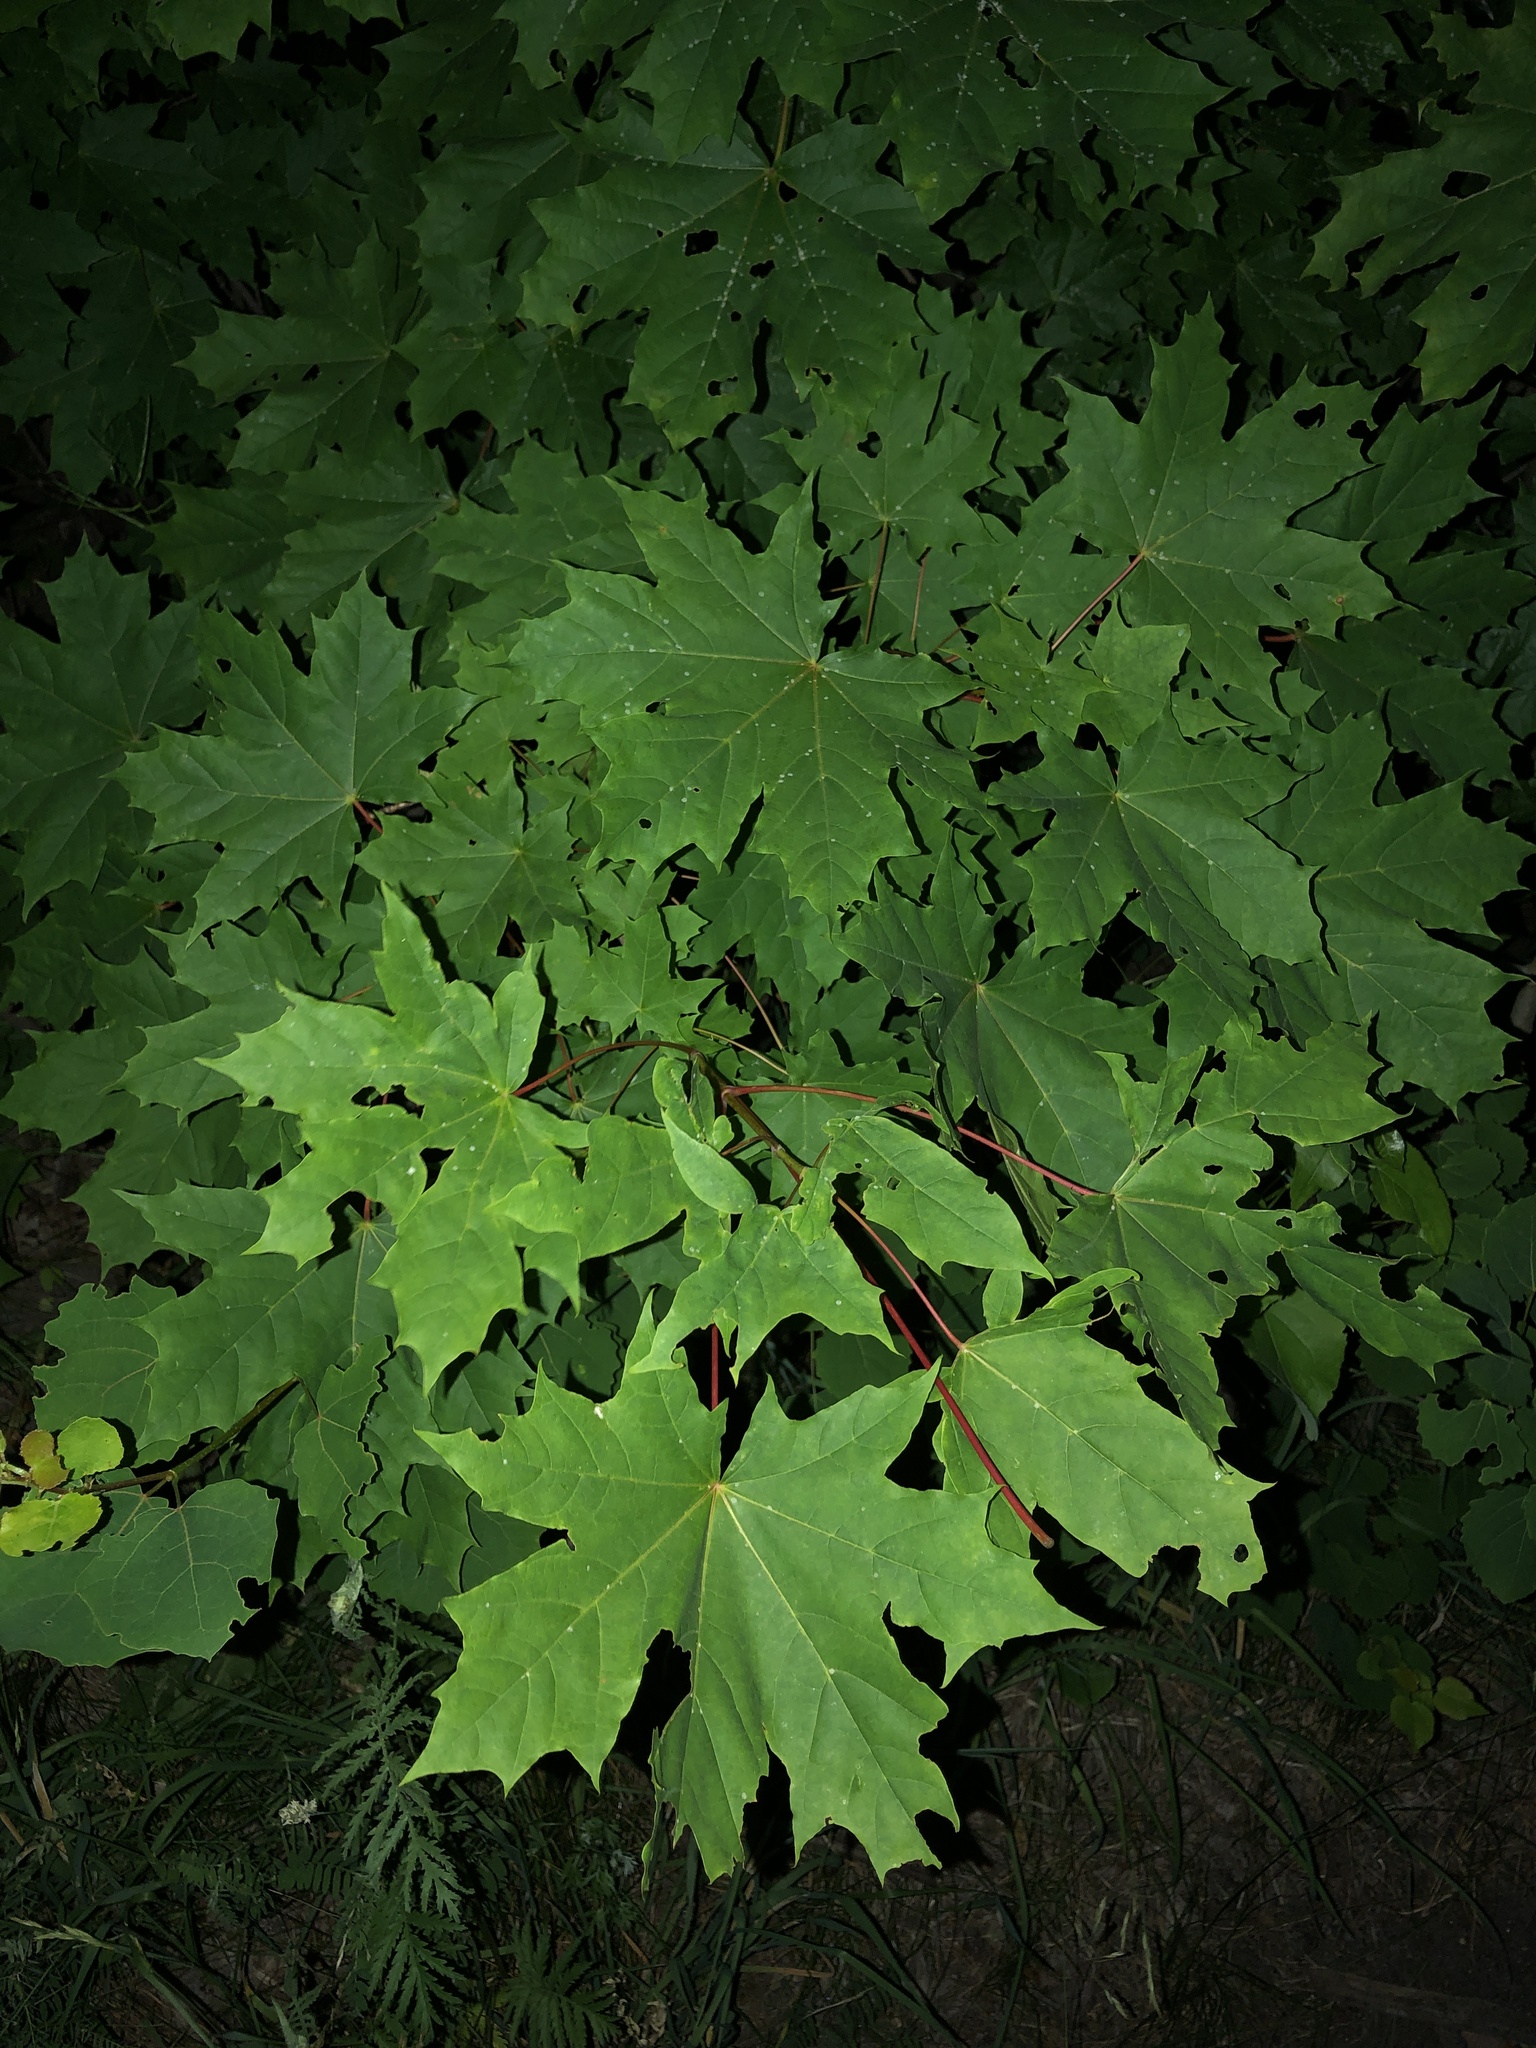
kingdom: Plantae
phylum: Tracheophyta
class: Magnoliopsida
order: Sapindales
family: Sapindaceae
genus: Acer
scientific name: Acer platanoides
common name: Norway maple
